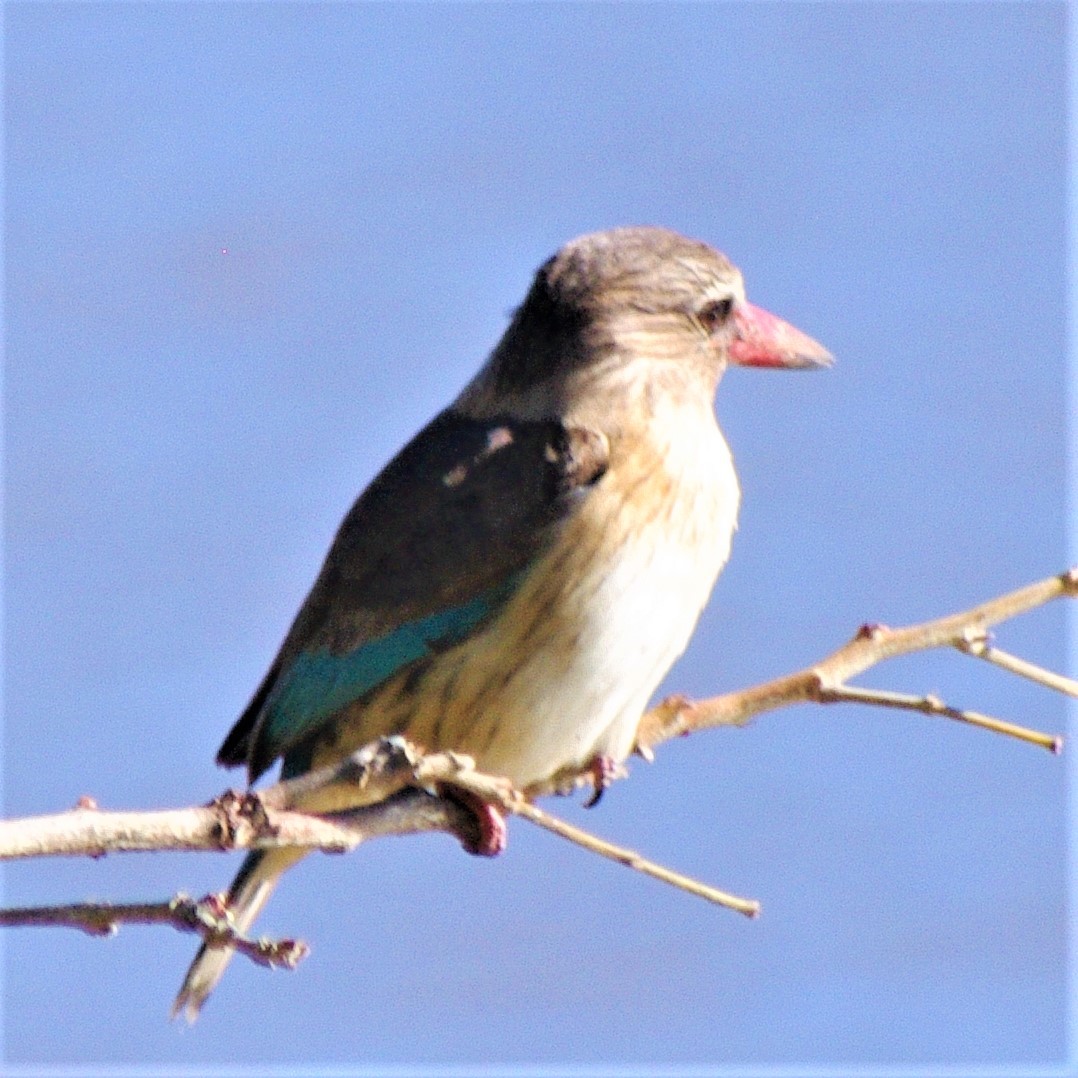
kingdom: Animalia
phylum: Chordata
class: Aves
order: Coraciiformes
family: Alcedinidae
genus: Halcyon
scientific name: Halcyon albiventris
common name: Brown-hooded kingfisher
